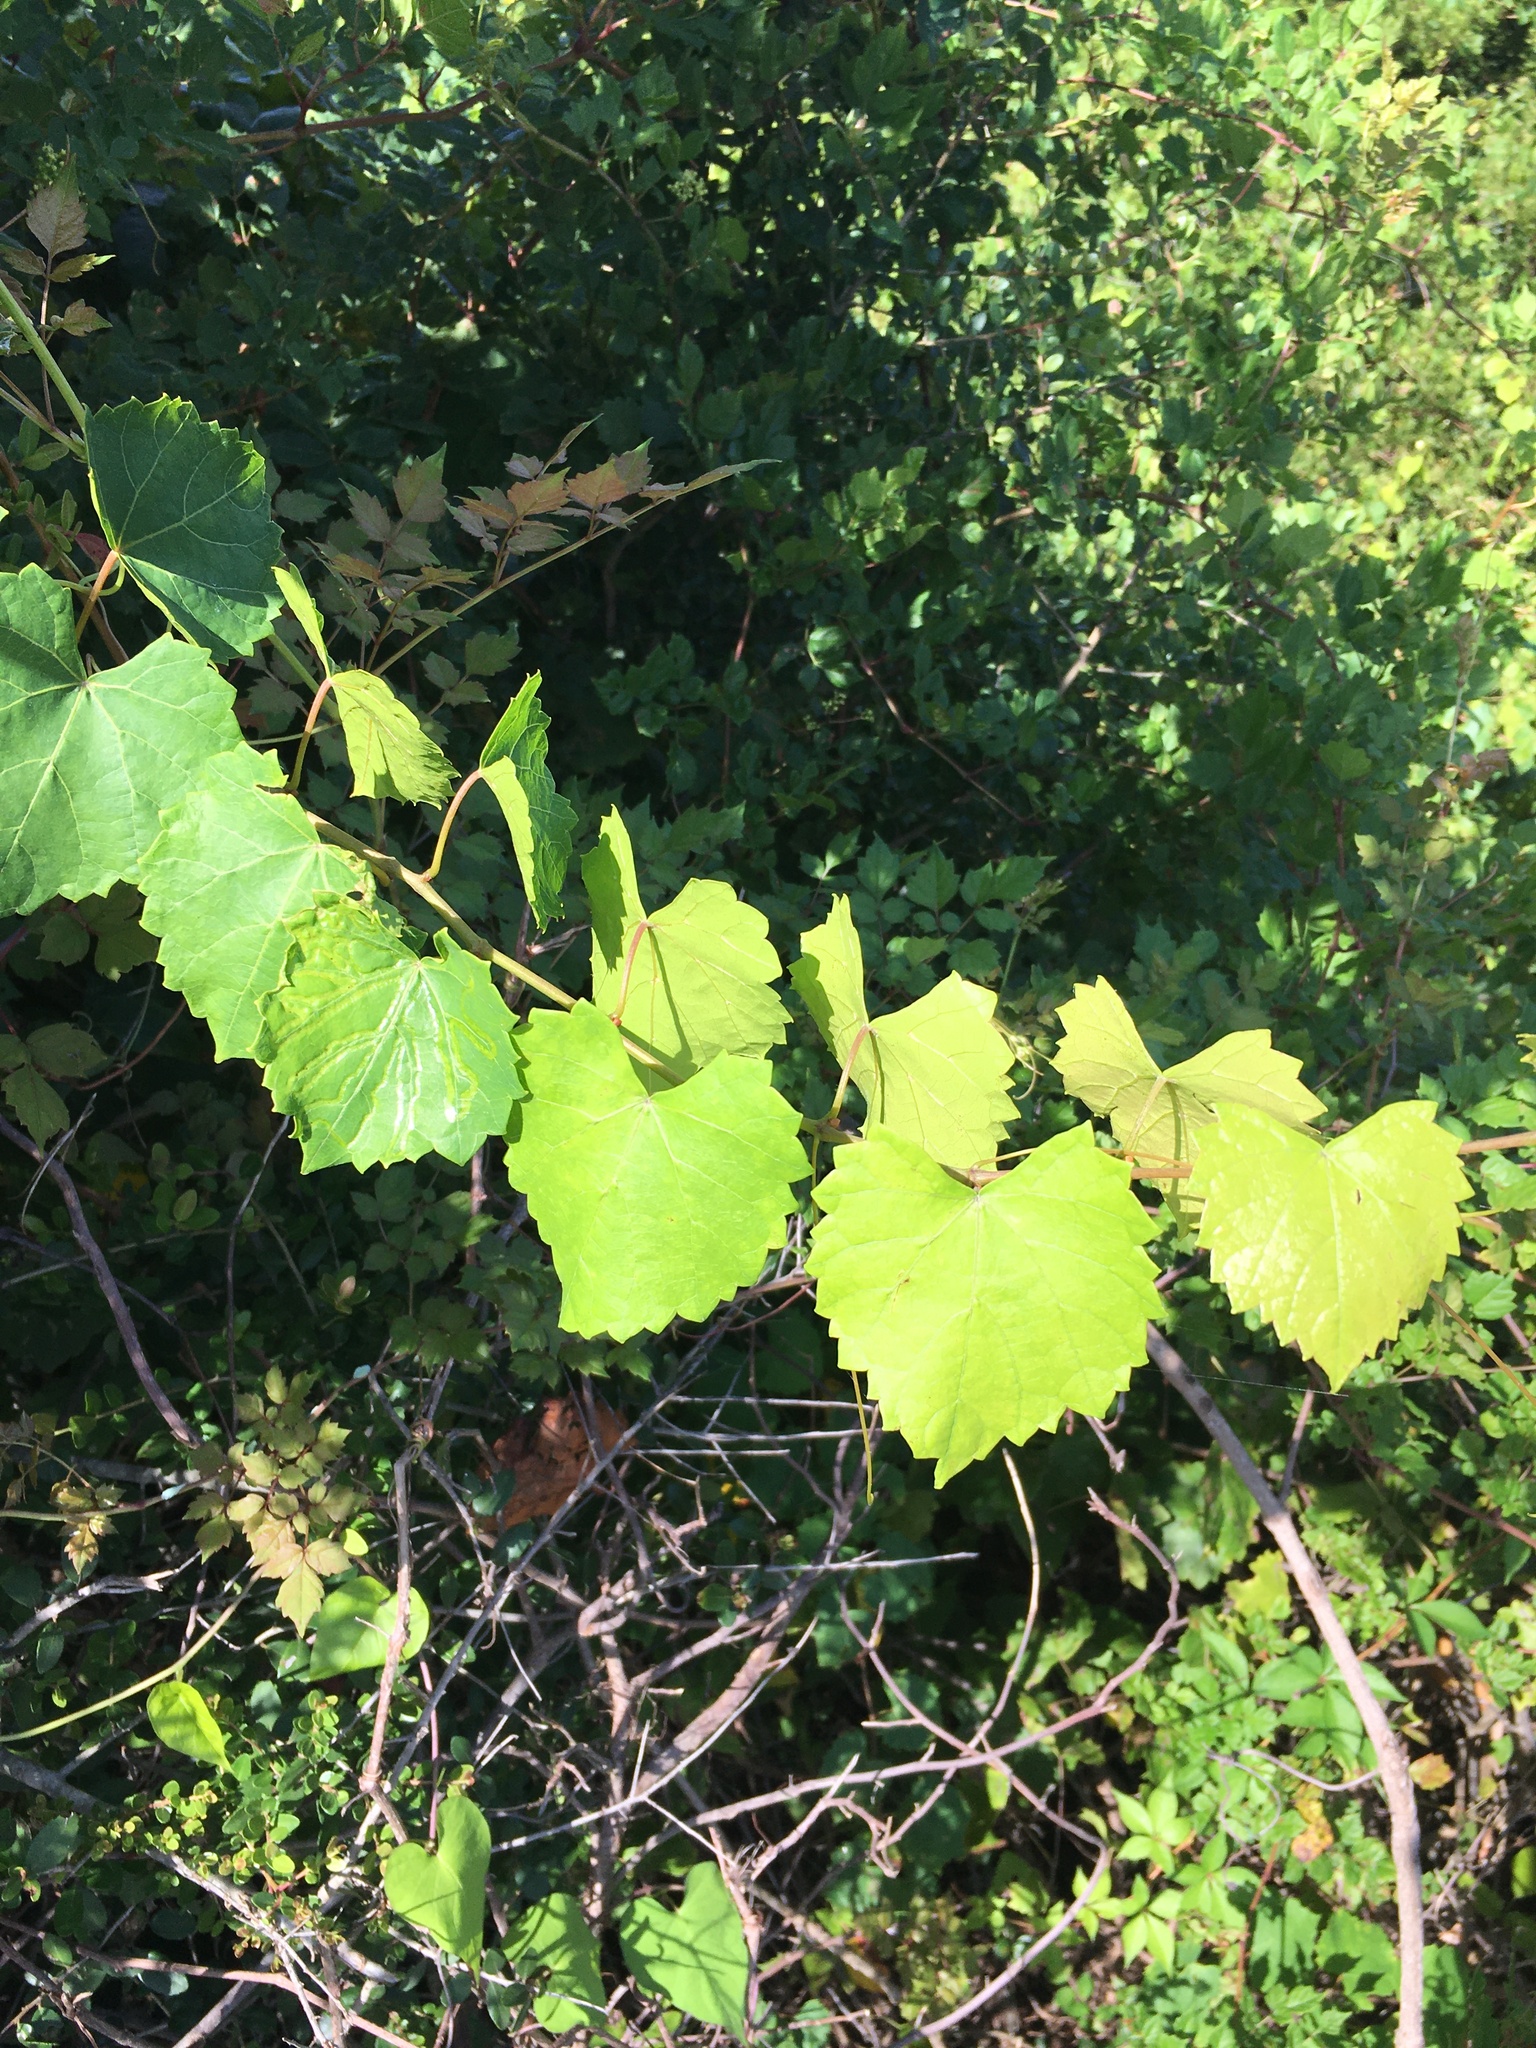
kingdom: Plantae
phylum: Tracheophyta
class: Magnoliopsida
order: Vitales
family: Vitaceae
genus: Vitis
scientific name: Vitis rotundifolia
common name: Muscadine grape
